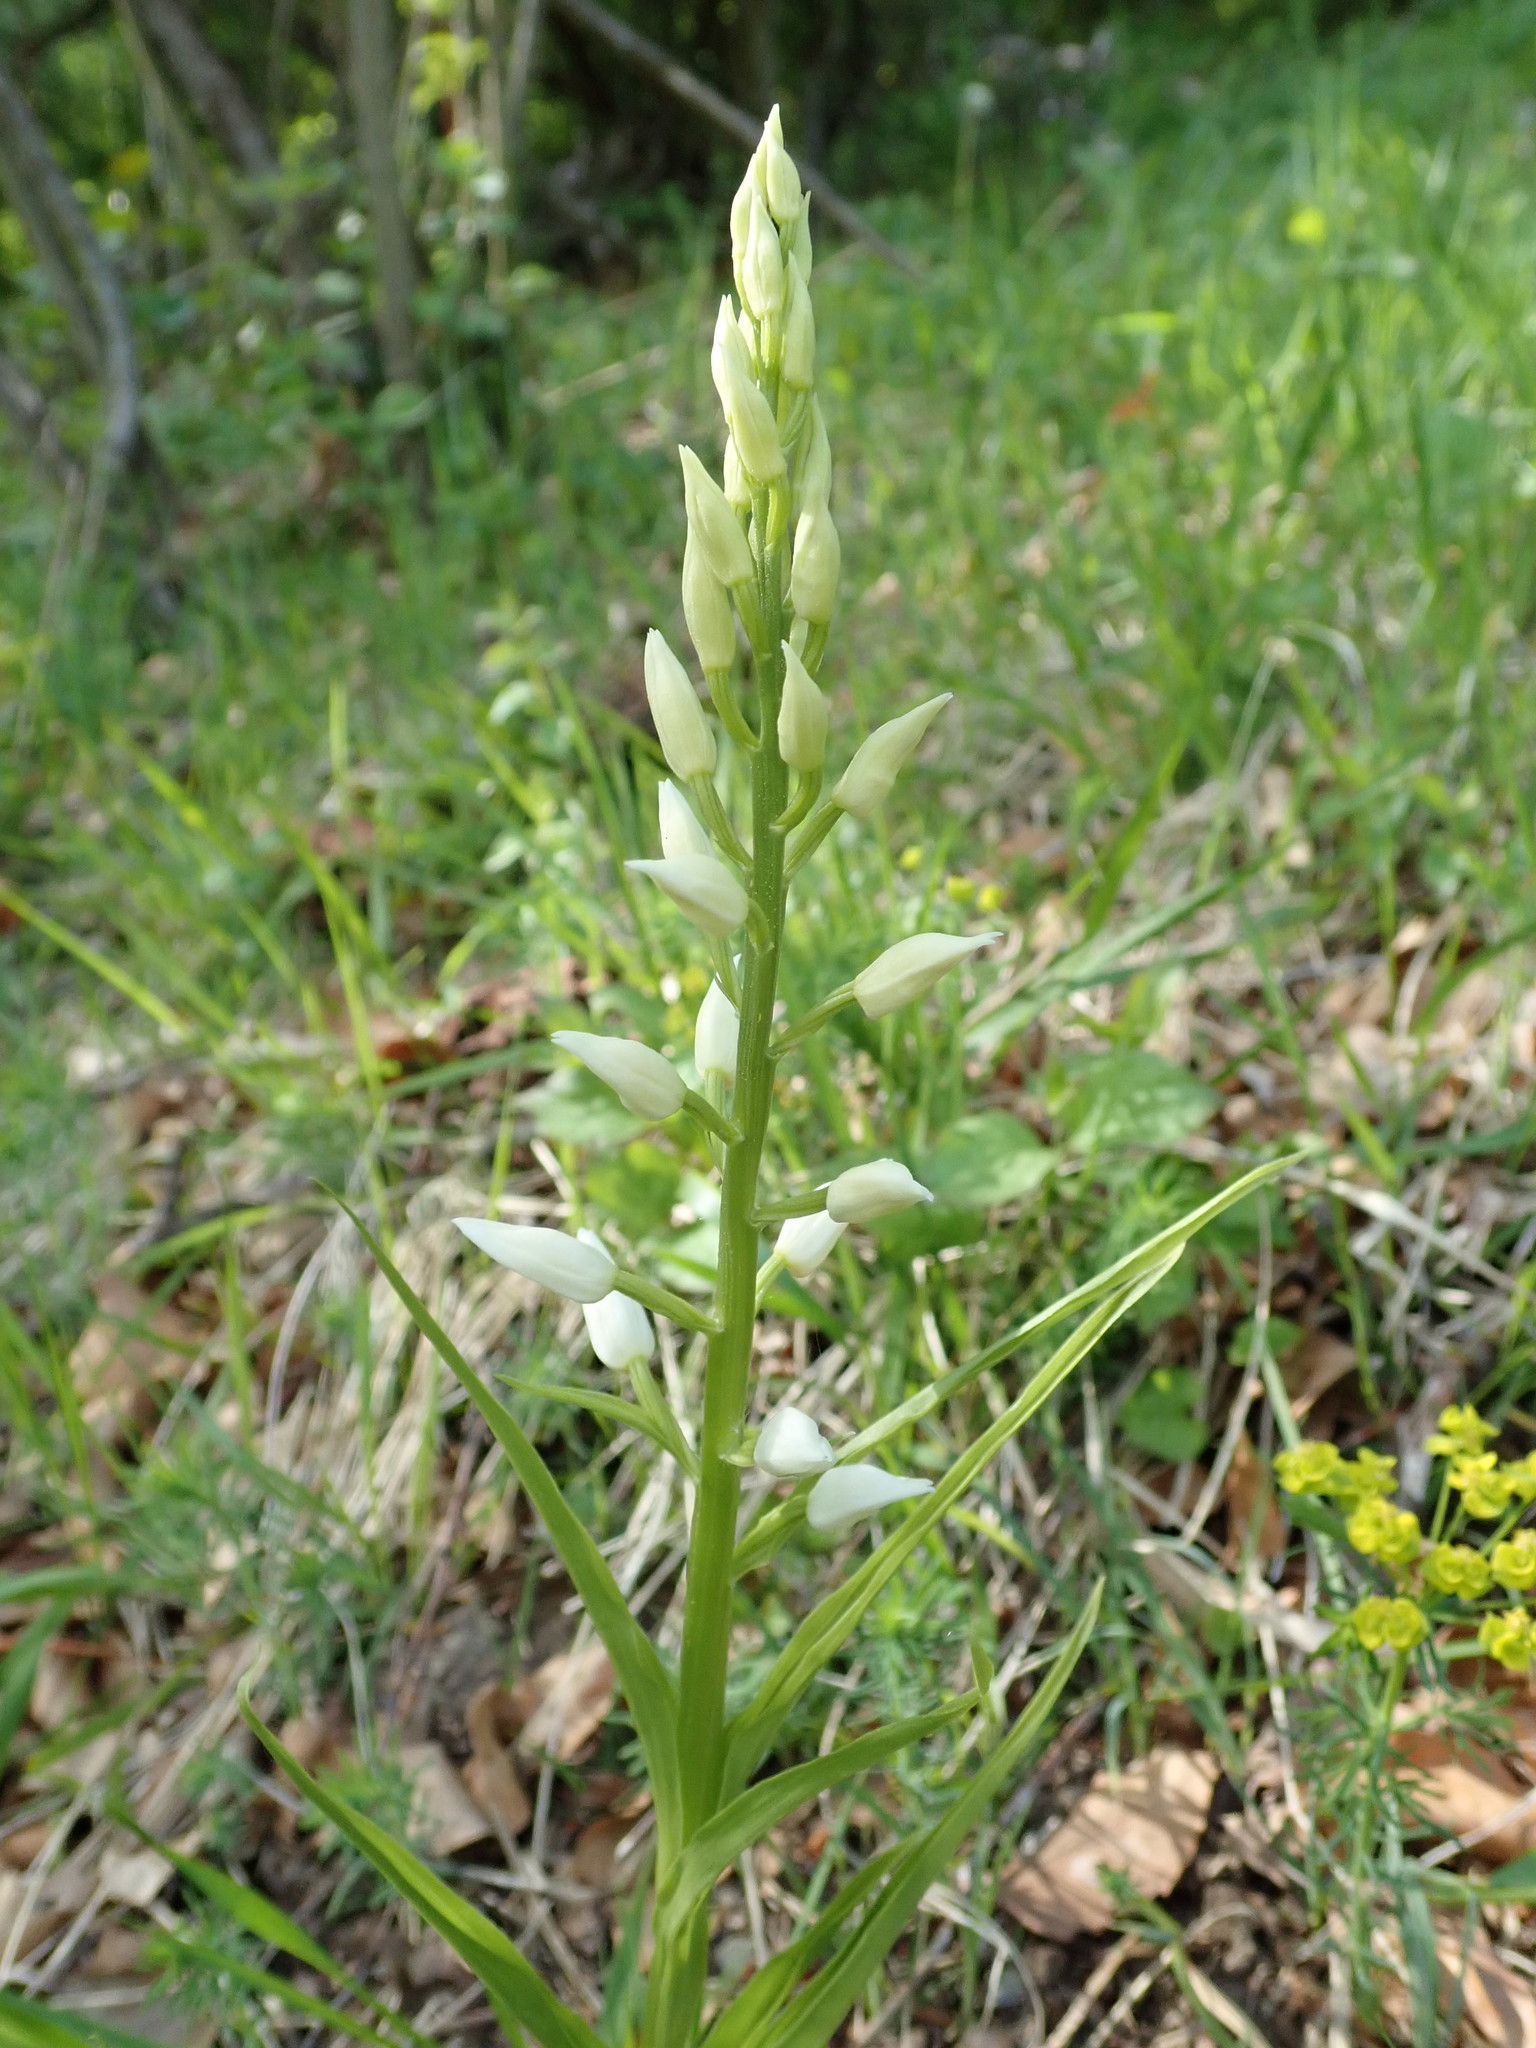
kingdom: Plantae
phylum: Tracheophyta
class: Liliopsida
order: Asparagales
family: Orchidaceae
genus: Cephalanthera
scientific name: Cephalanthera longifolia
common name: Narrow-leaved helleborine
